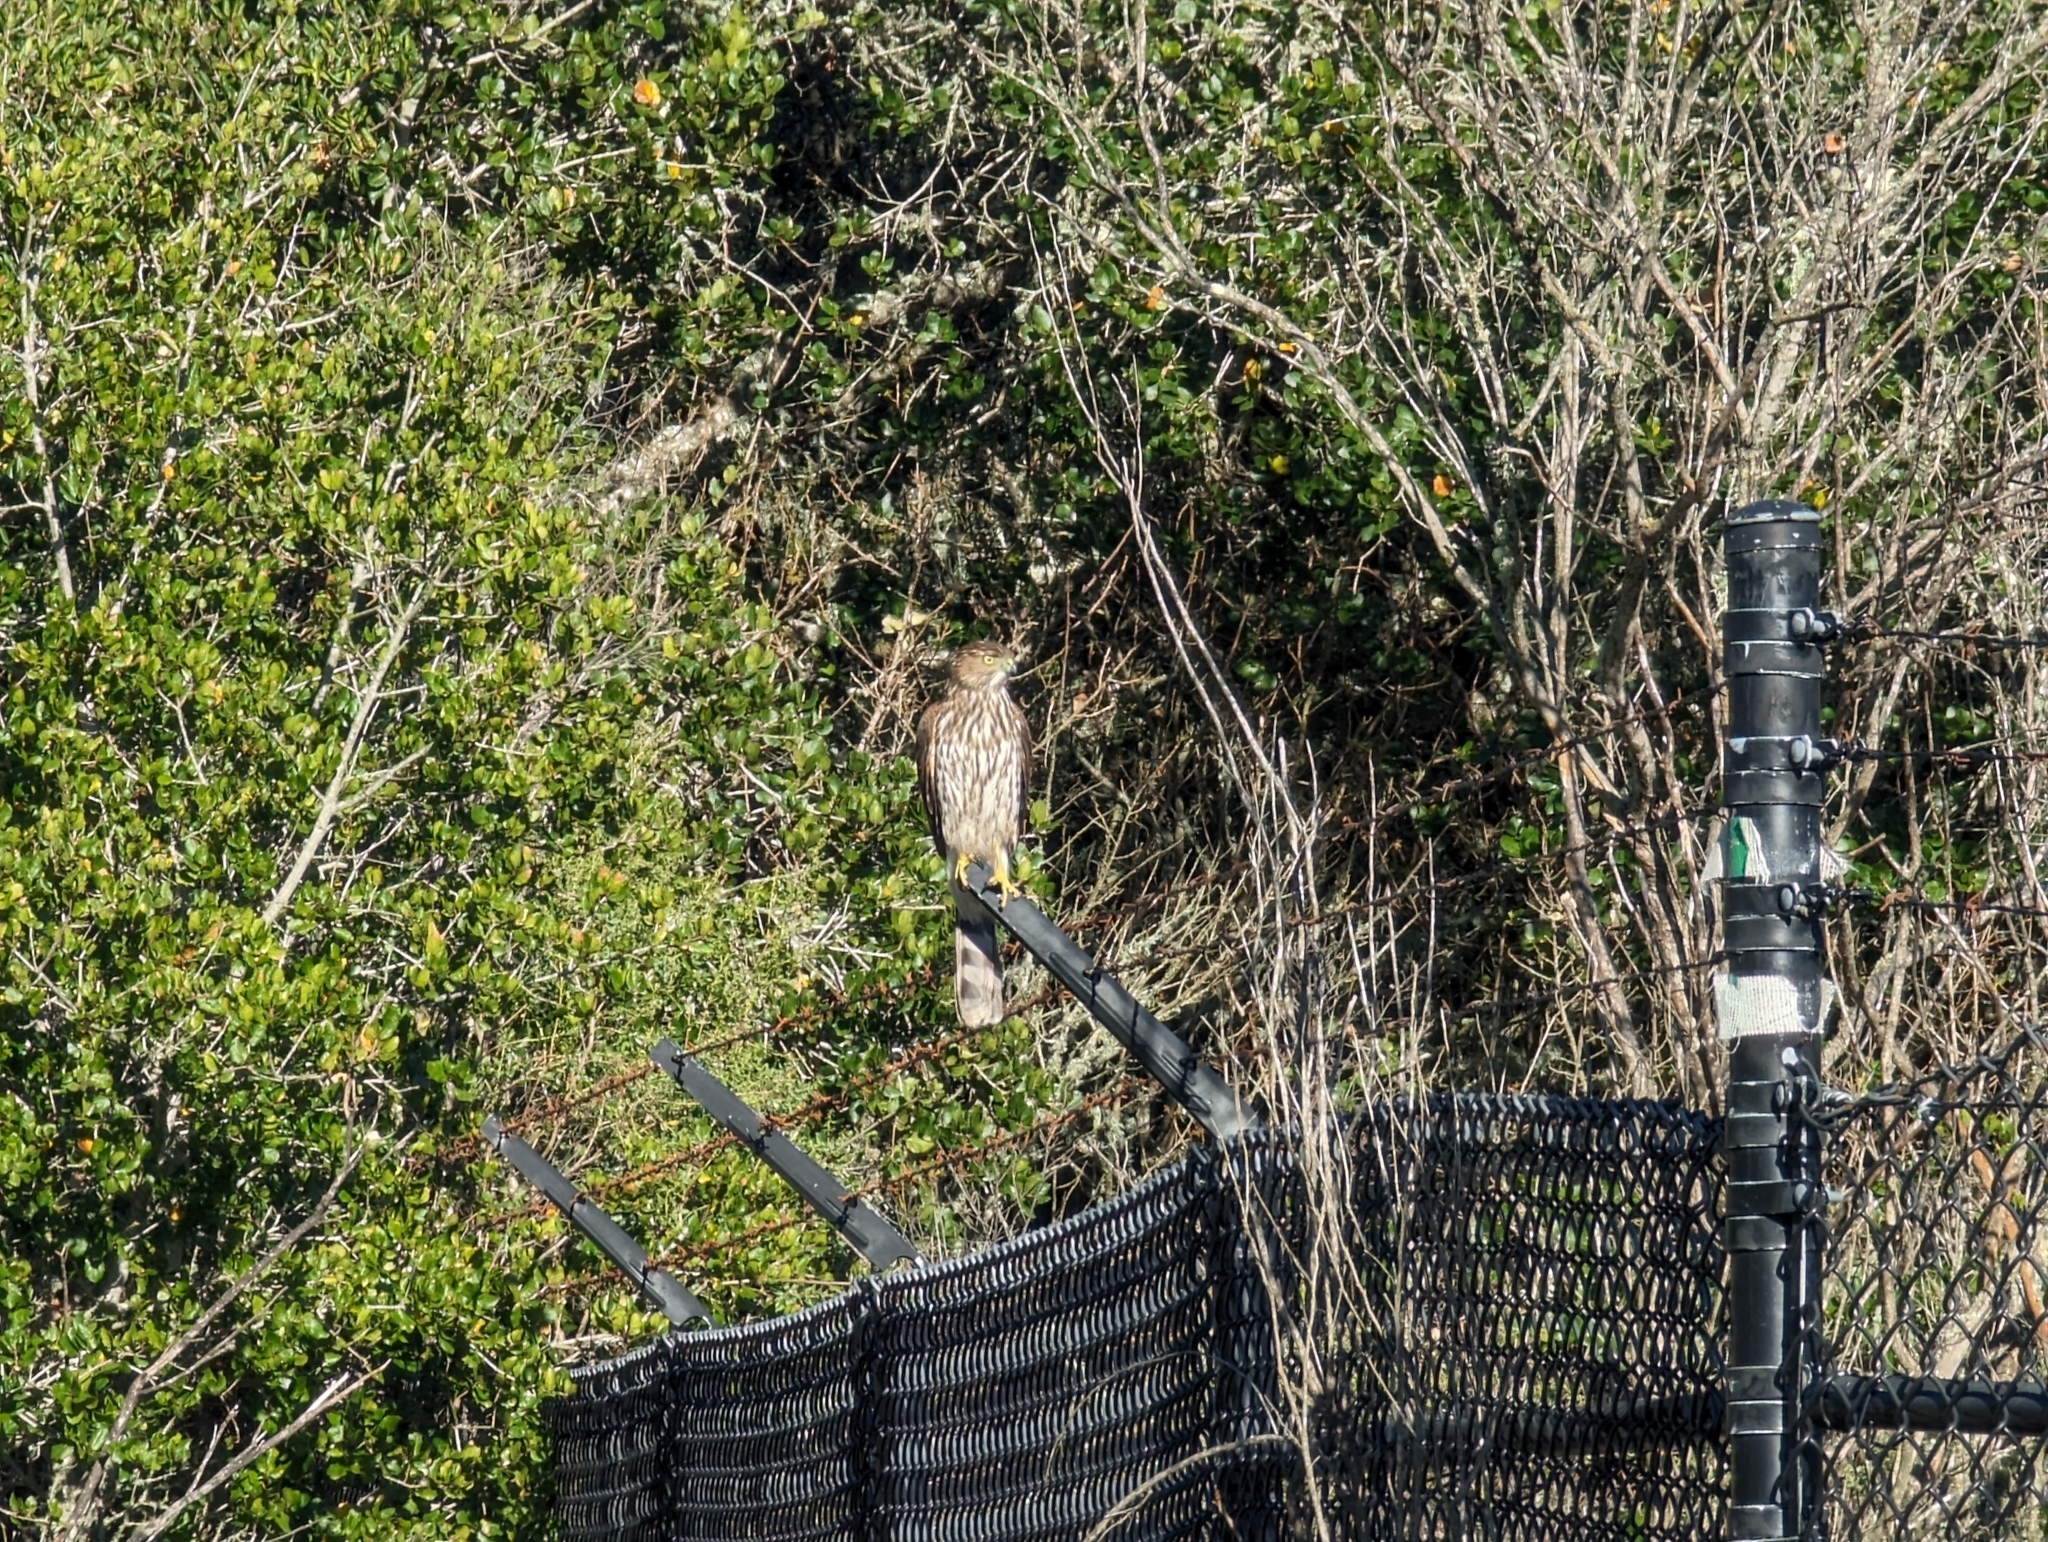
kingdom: Animalia
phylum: Chordata
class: Aves
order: Accipitriformes
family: Accipitridae
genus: Accipiter
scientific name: Accipiter cooperii
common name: Cooper's hawk
